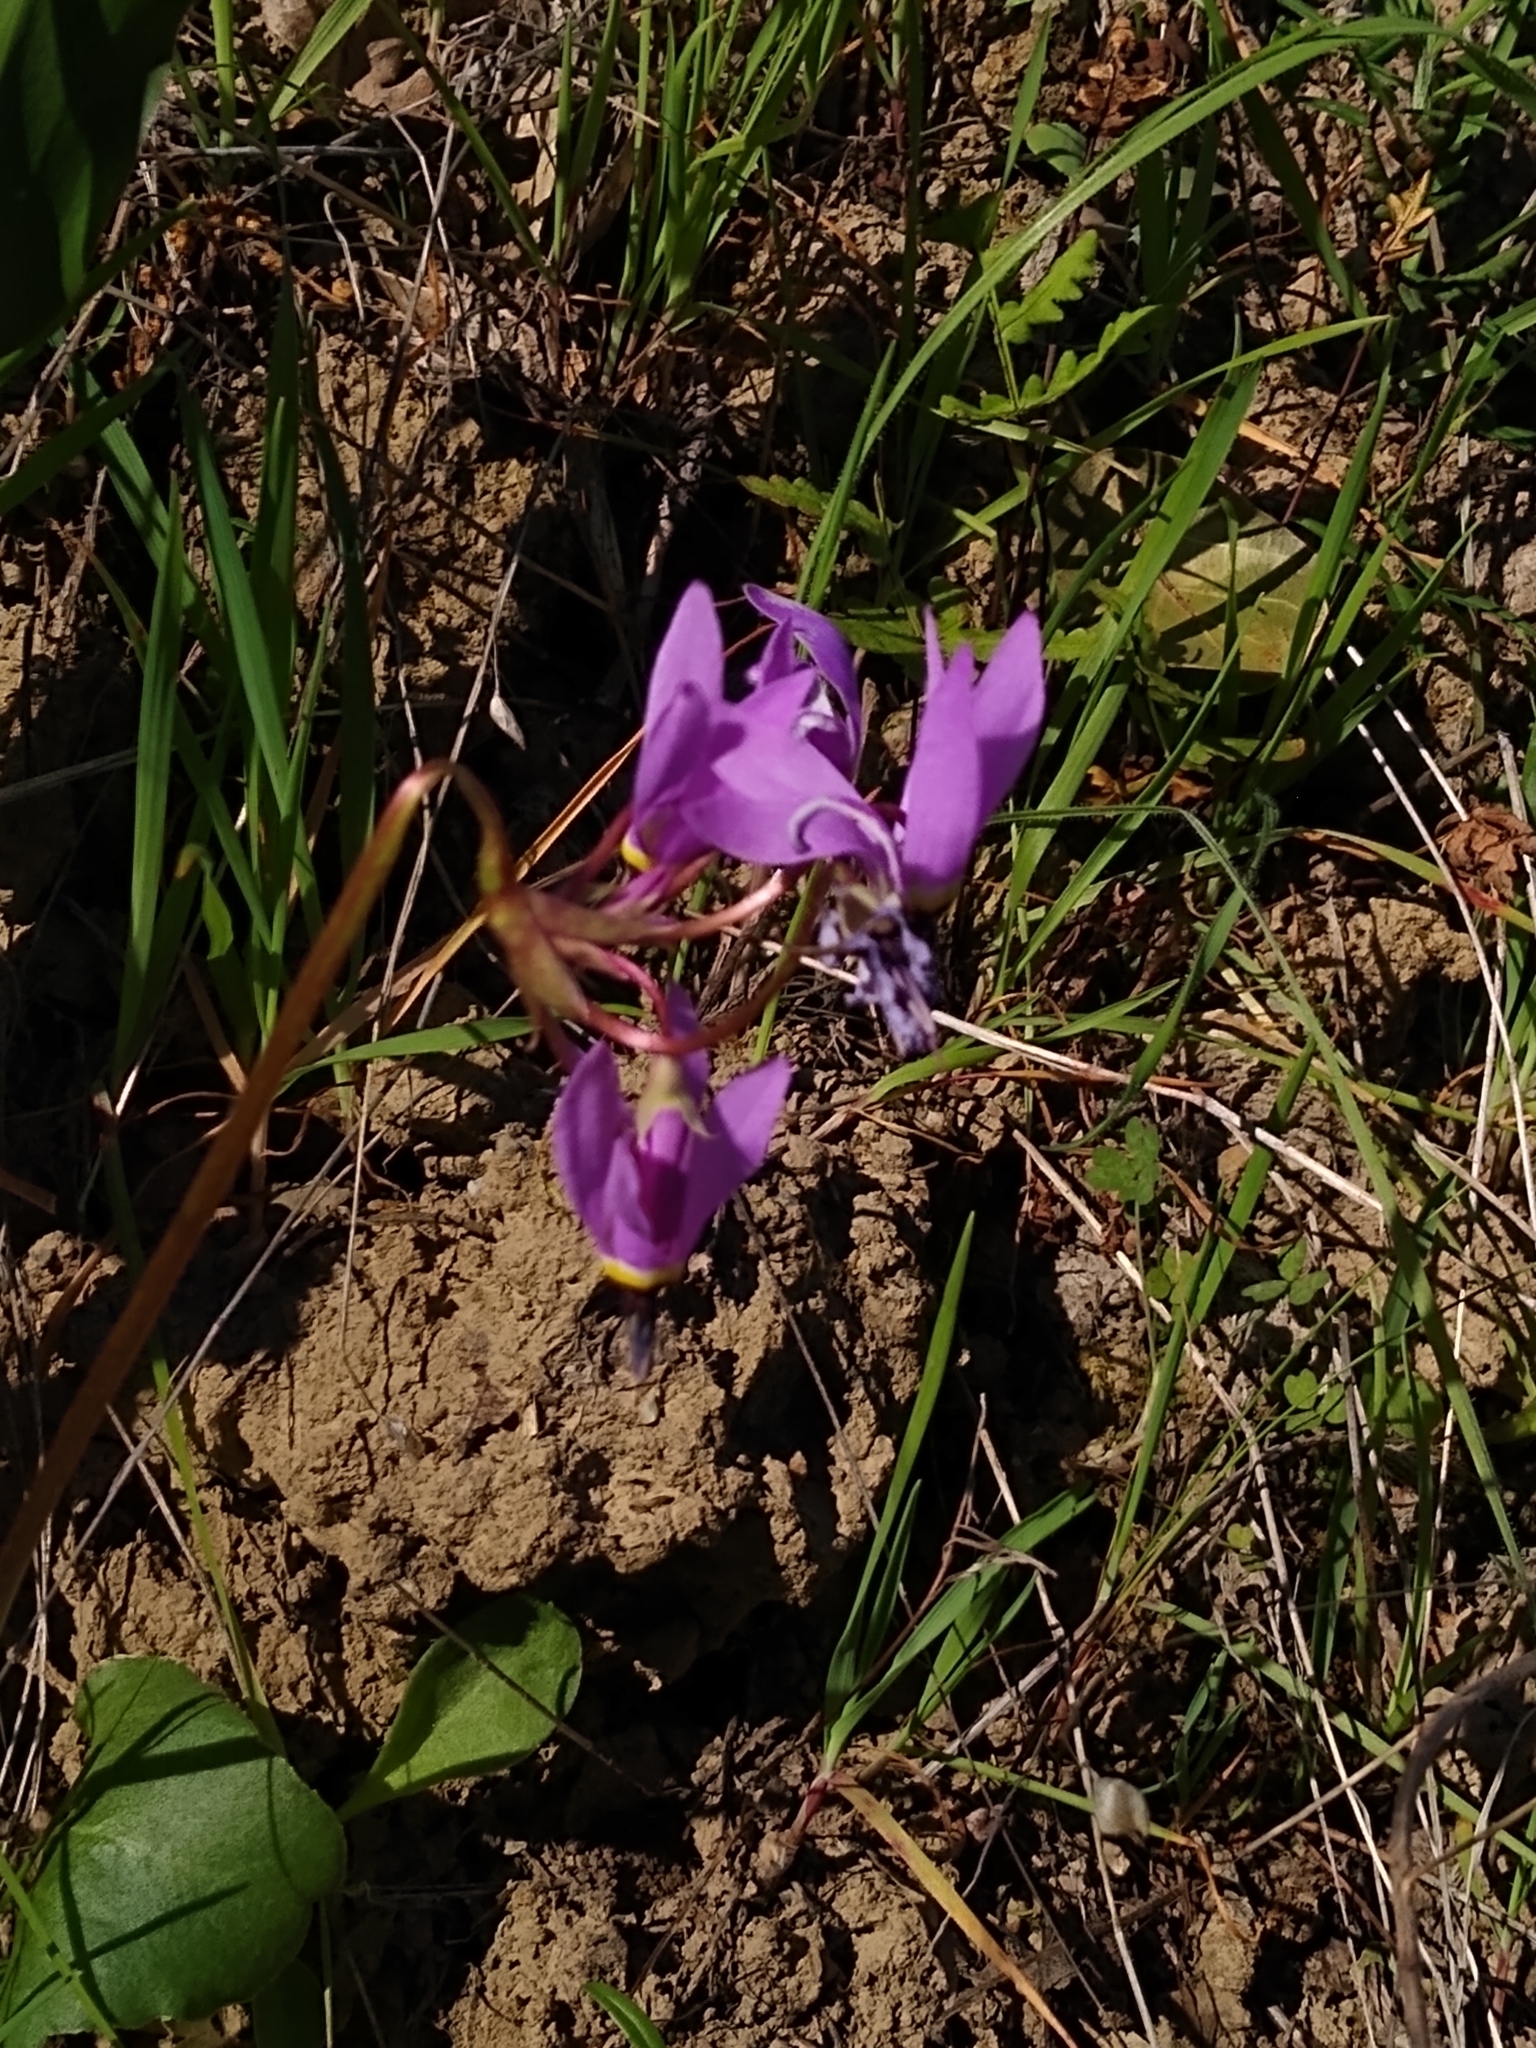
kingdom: Plantae
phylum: Tracheophyta
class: Magnoliopsida
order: Ericales
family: Primulaceae
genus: Dodecatheon
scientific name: Dodecatheon hendersonii
